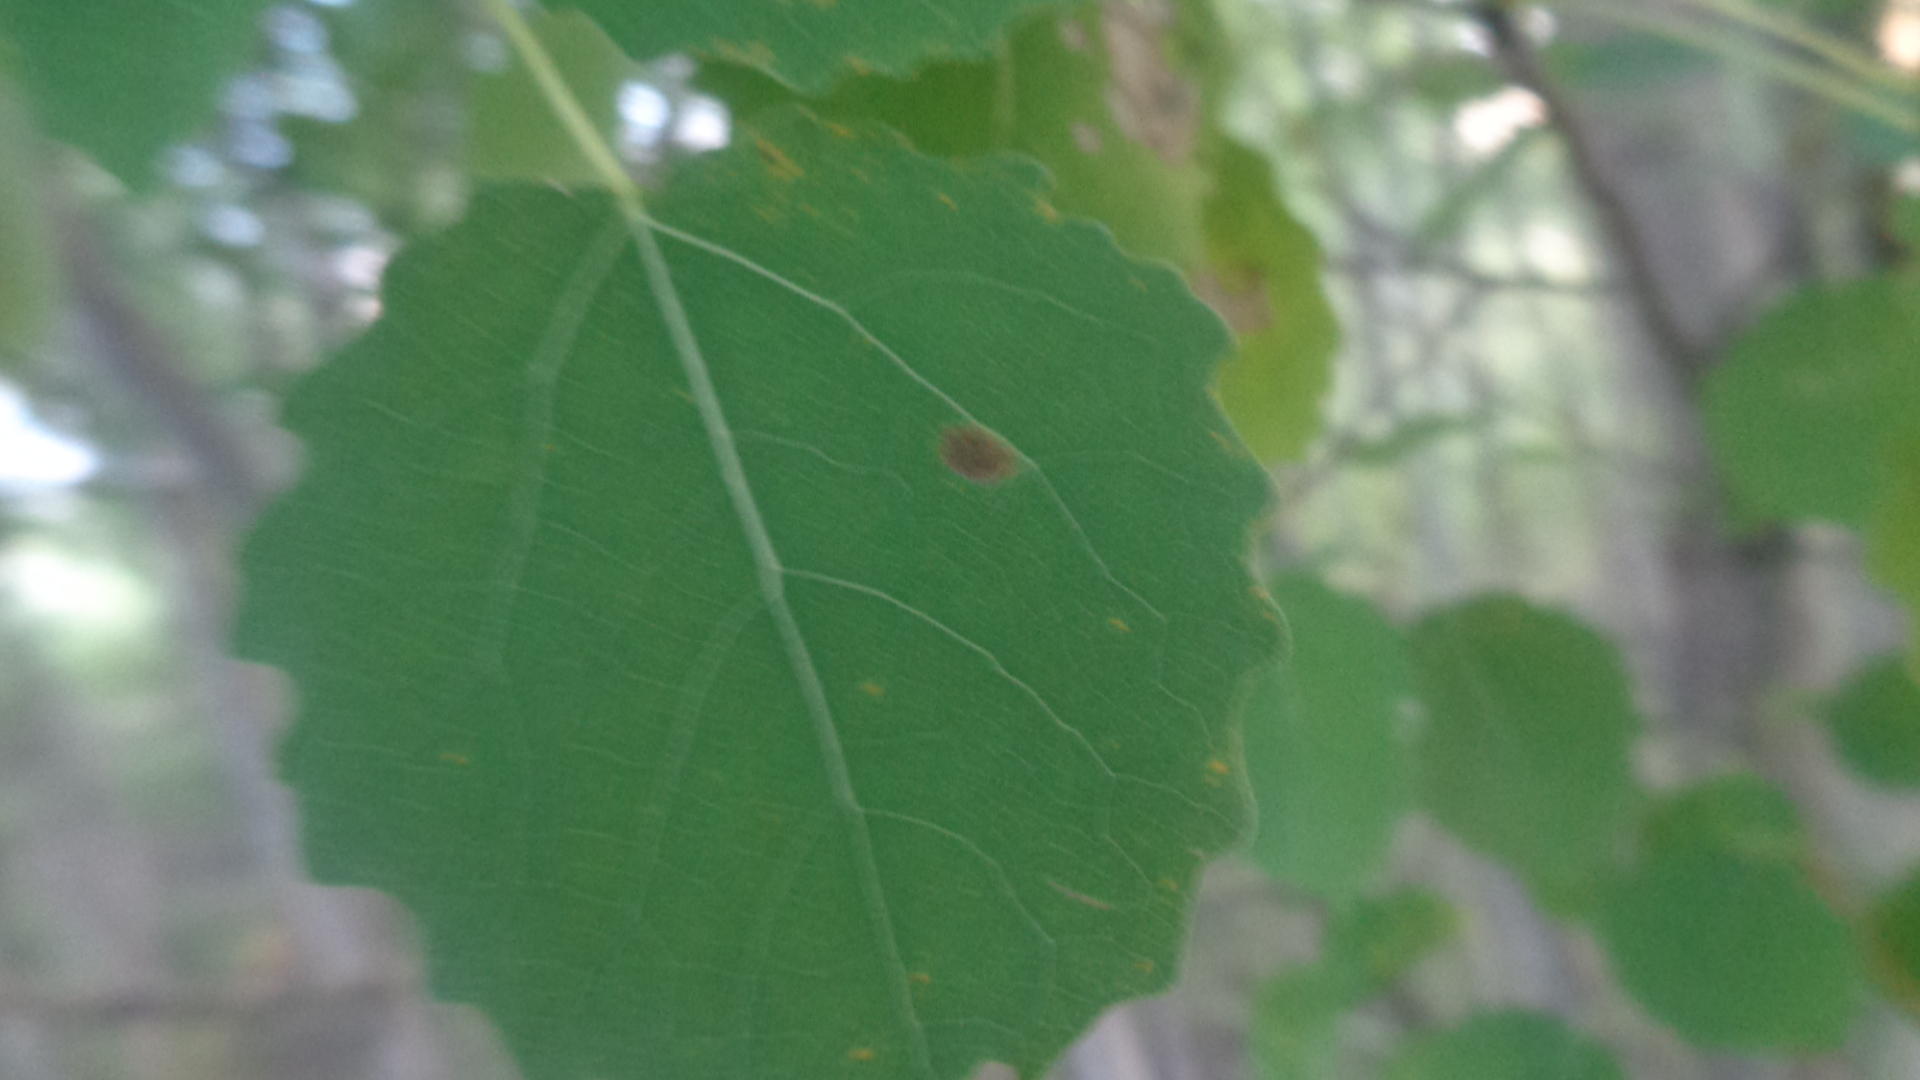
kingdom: Plantae
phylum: Tracheophyta
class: Magnoliopsida
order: Malpighiales
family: Salicaceae
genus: Populus
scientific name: Populus tremula
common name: European aspen
